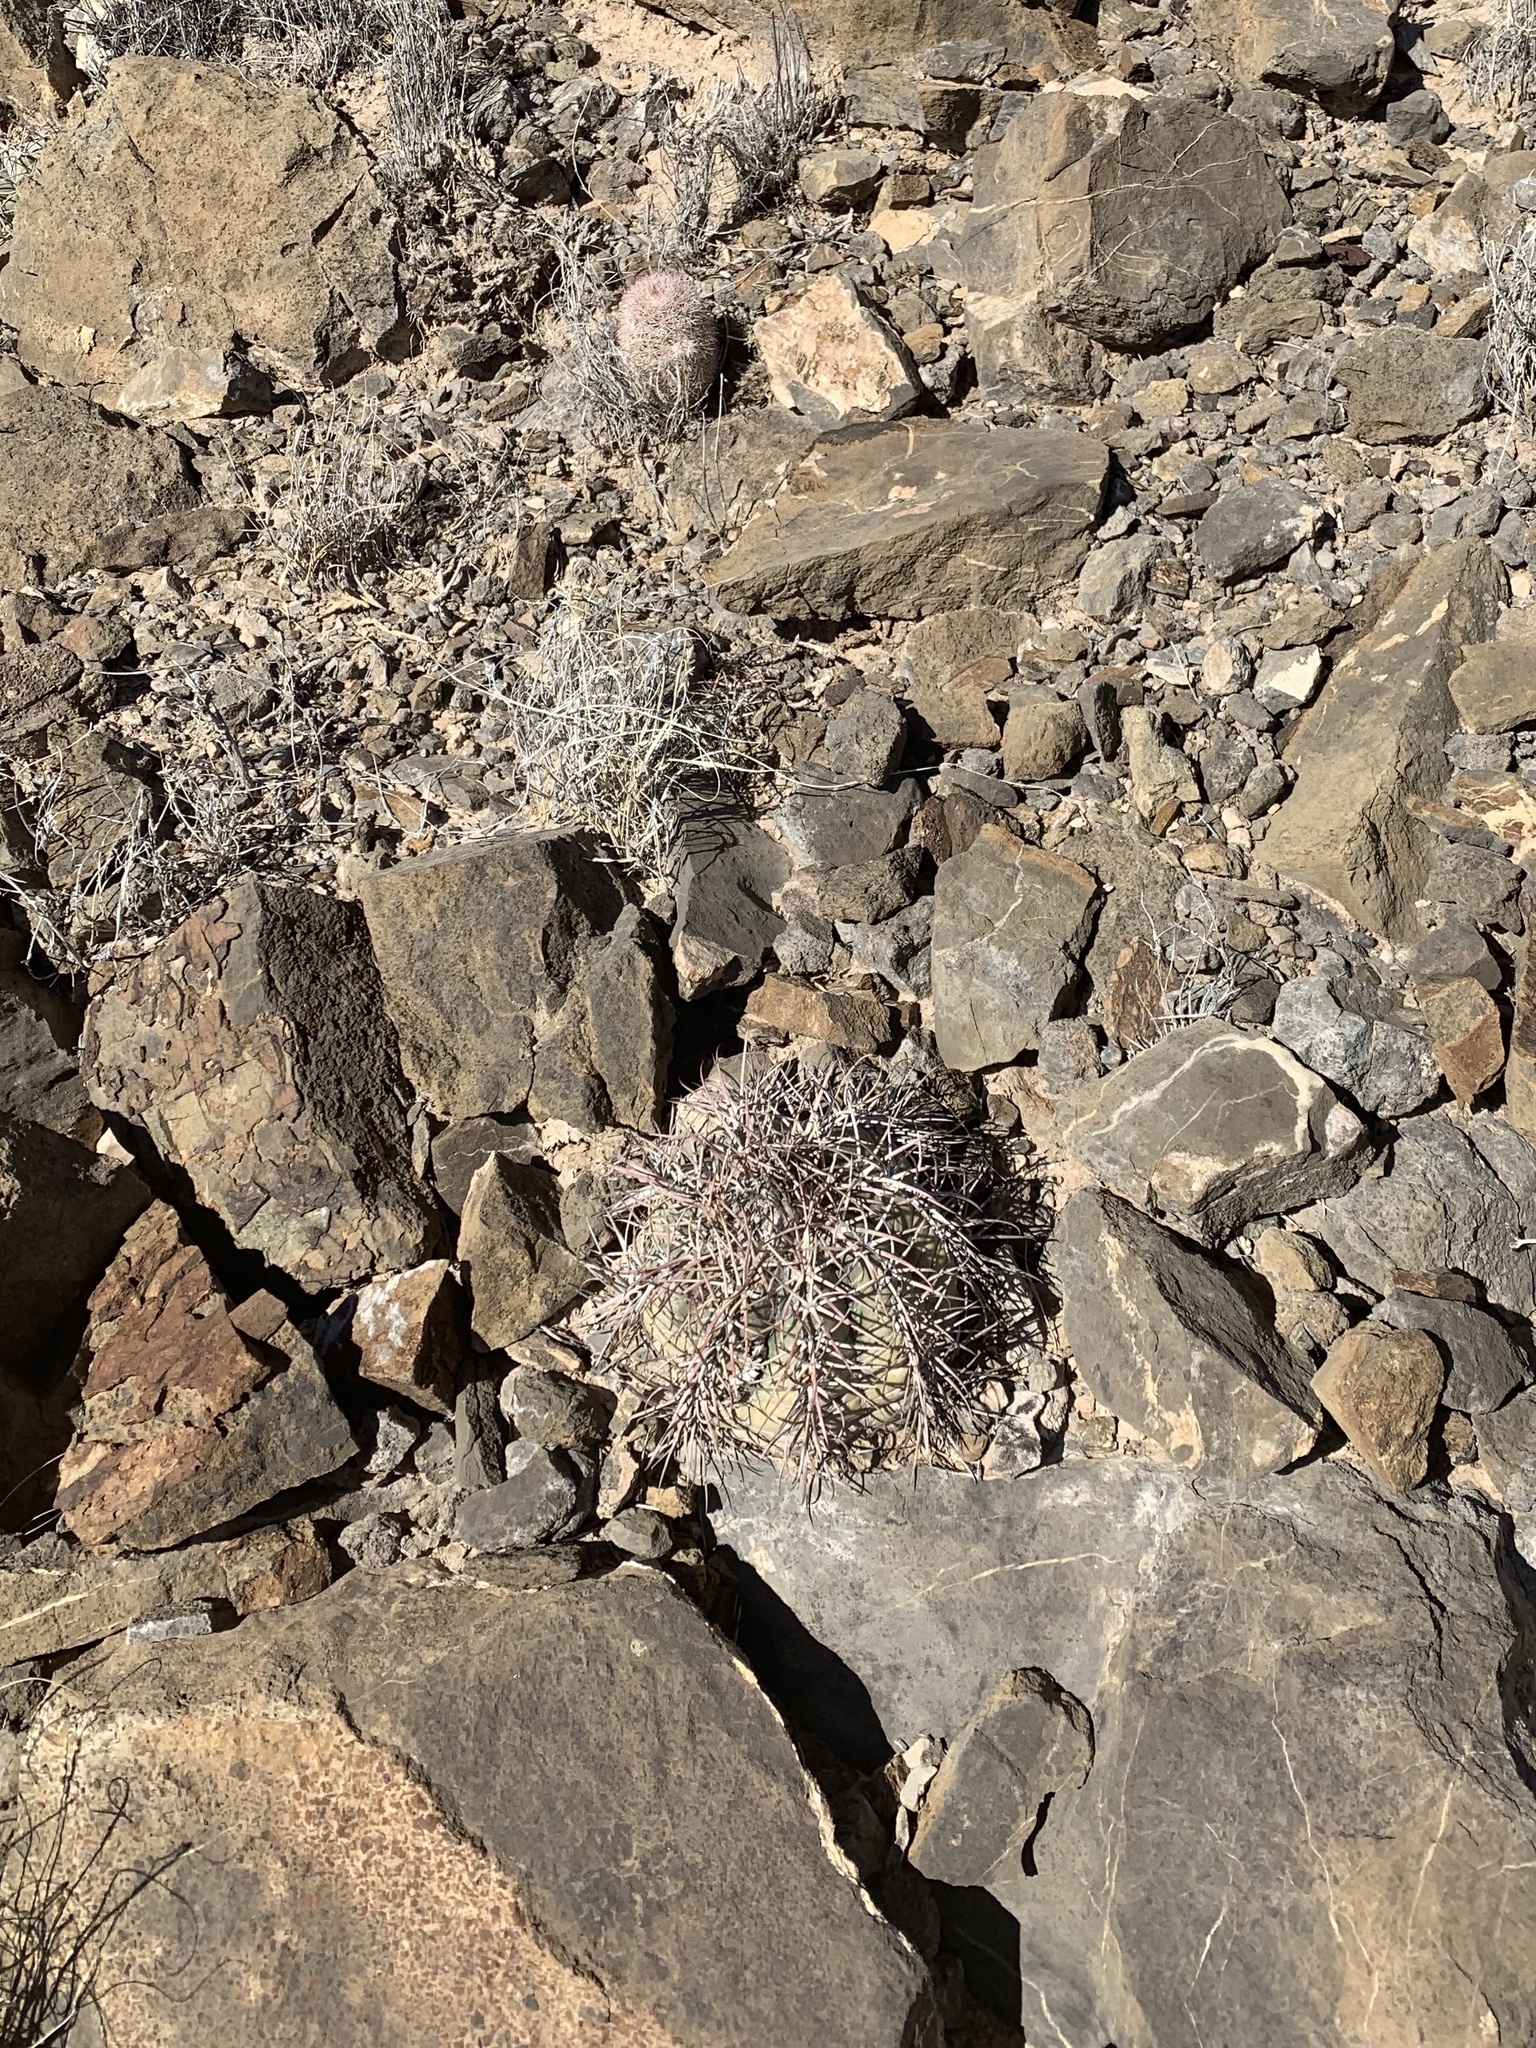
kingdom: Plantae
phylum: Tracheophyta
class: Magnoliopsida
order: Caryophyllales
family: Cactaceae
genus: Echinocactus
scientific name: Echinocactus horizonthalonius
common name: Devilshead
